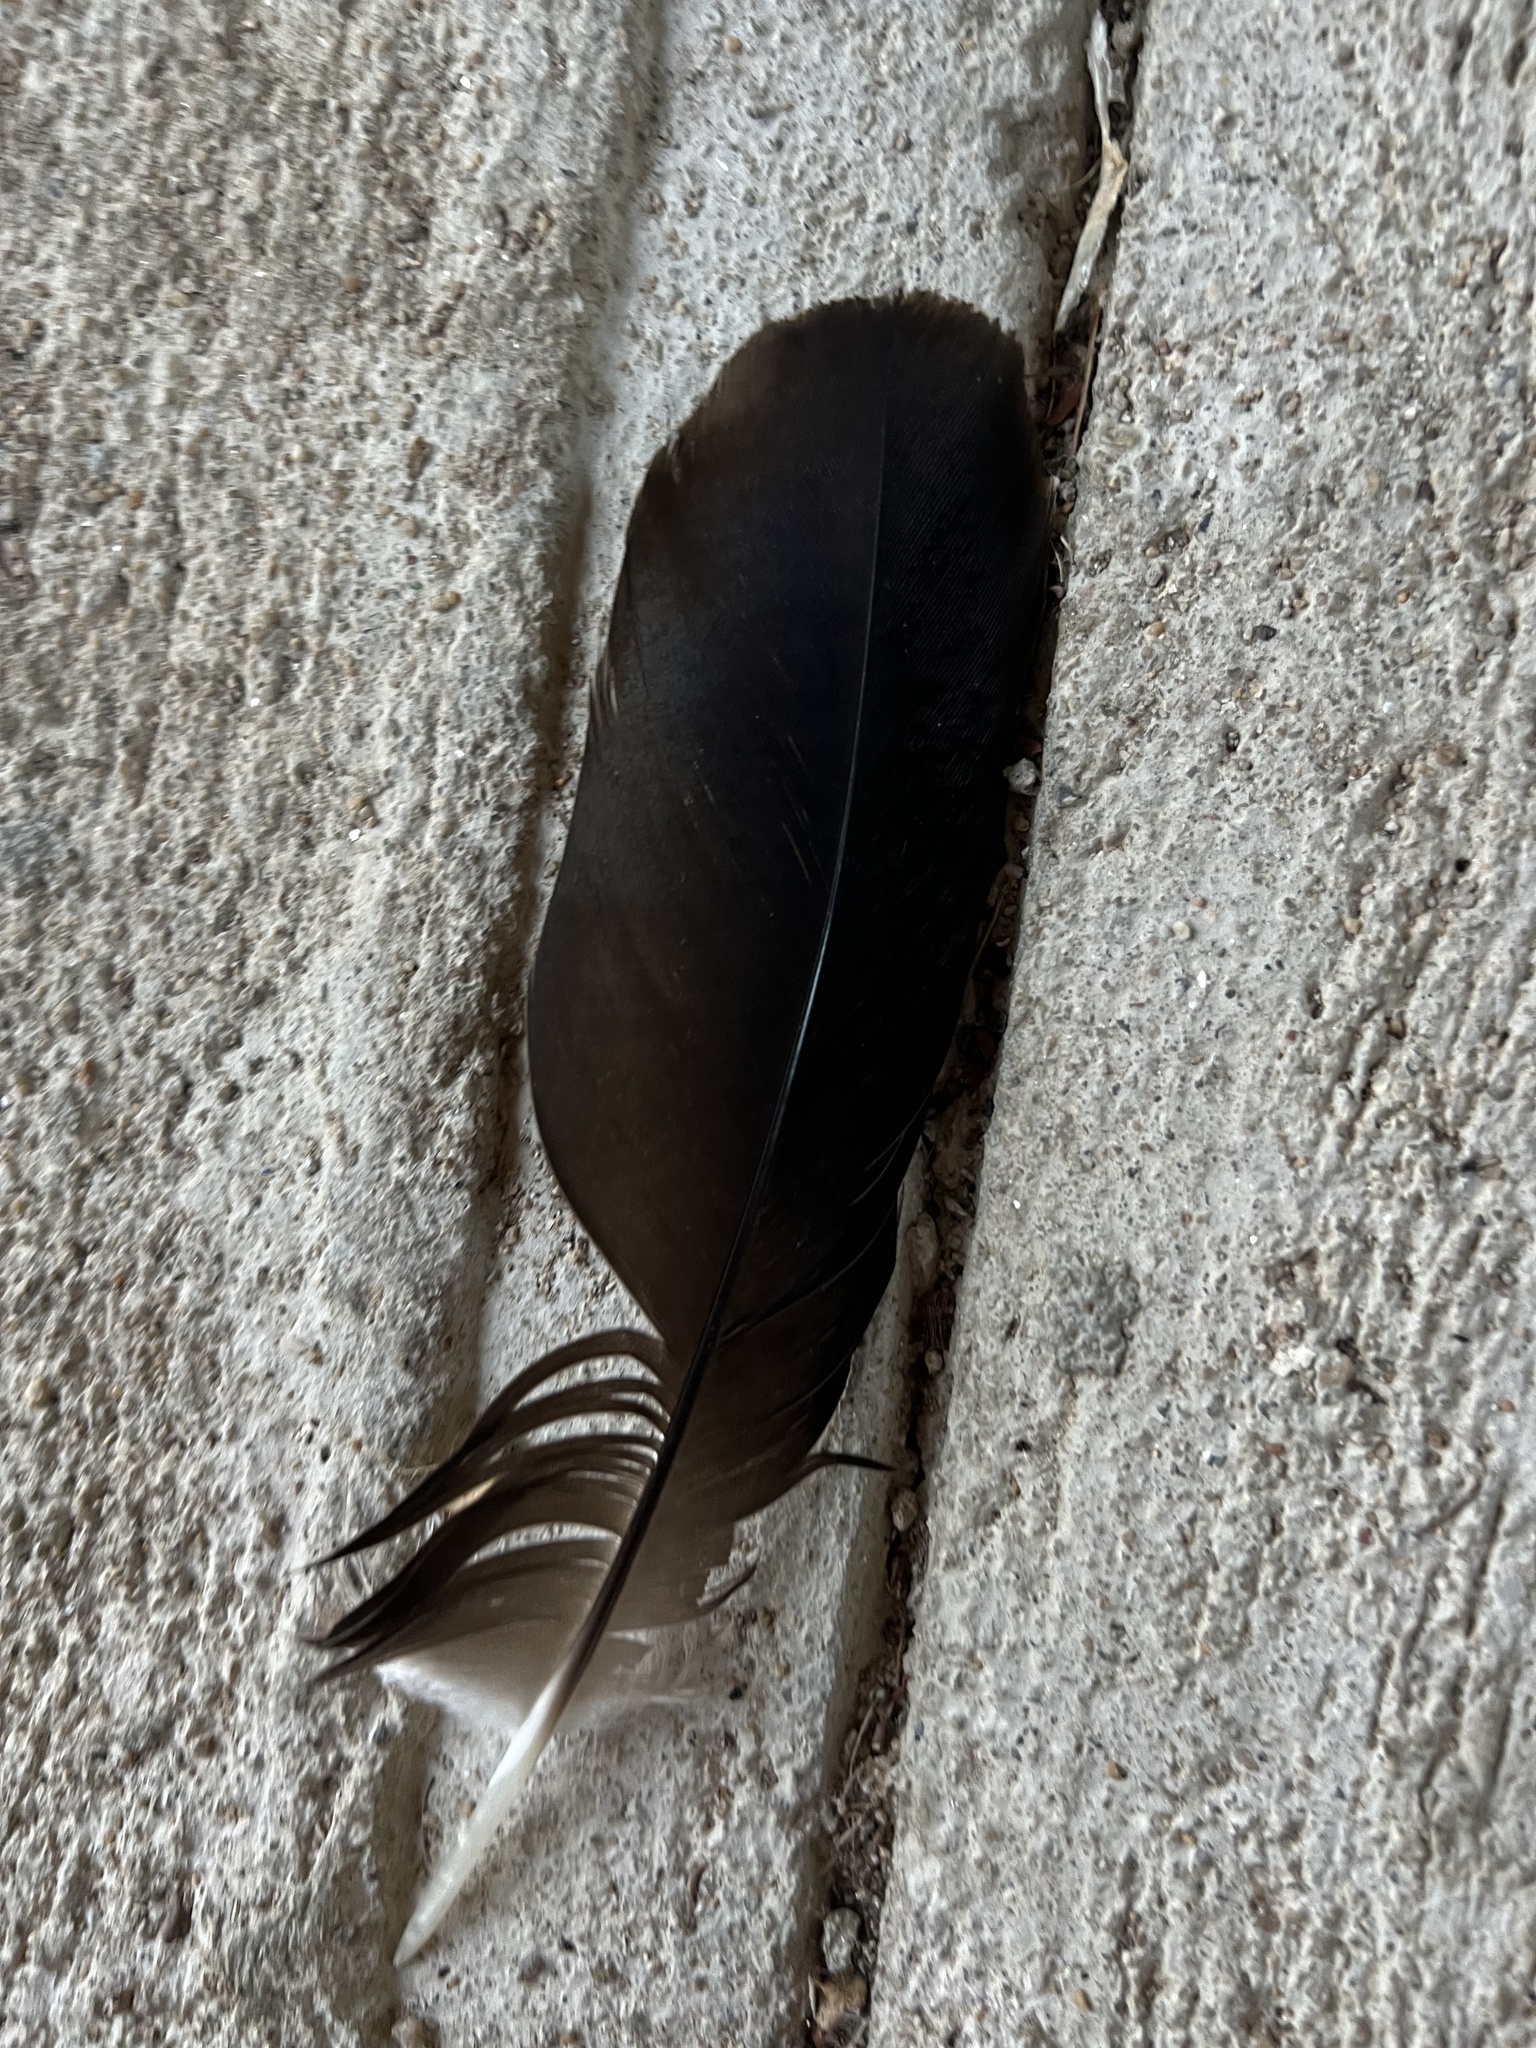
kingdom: Animalia
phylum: Chordata
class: Aves
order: Accipitriformes
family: Cathartidae
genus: Coragyps
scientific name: Coragyps atratus
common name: Black vulture
